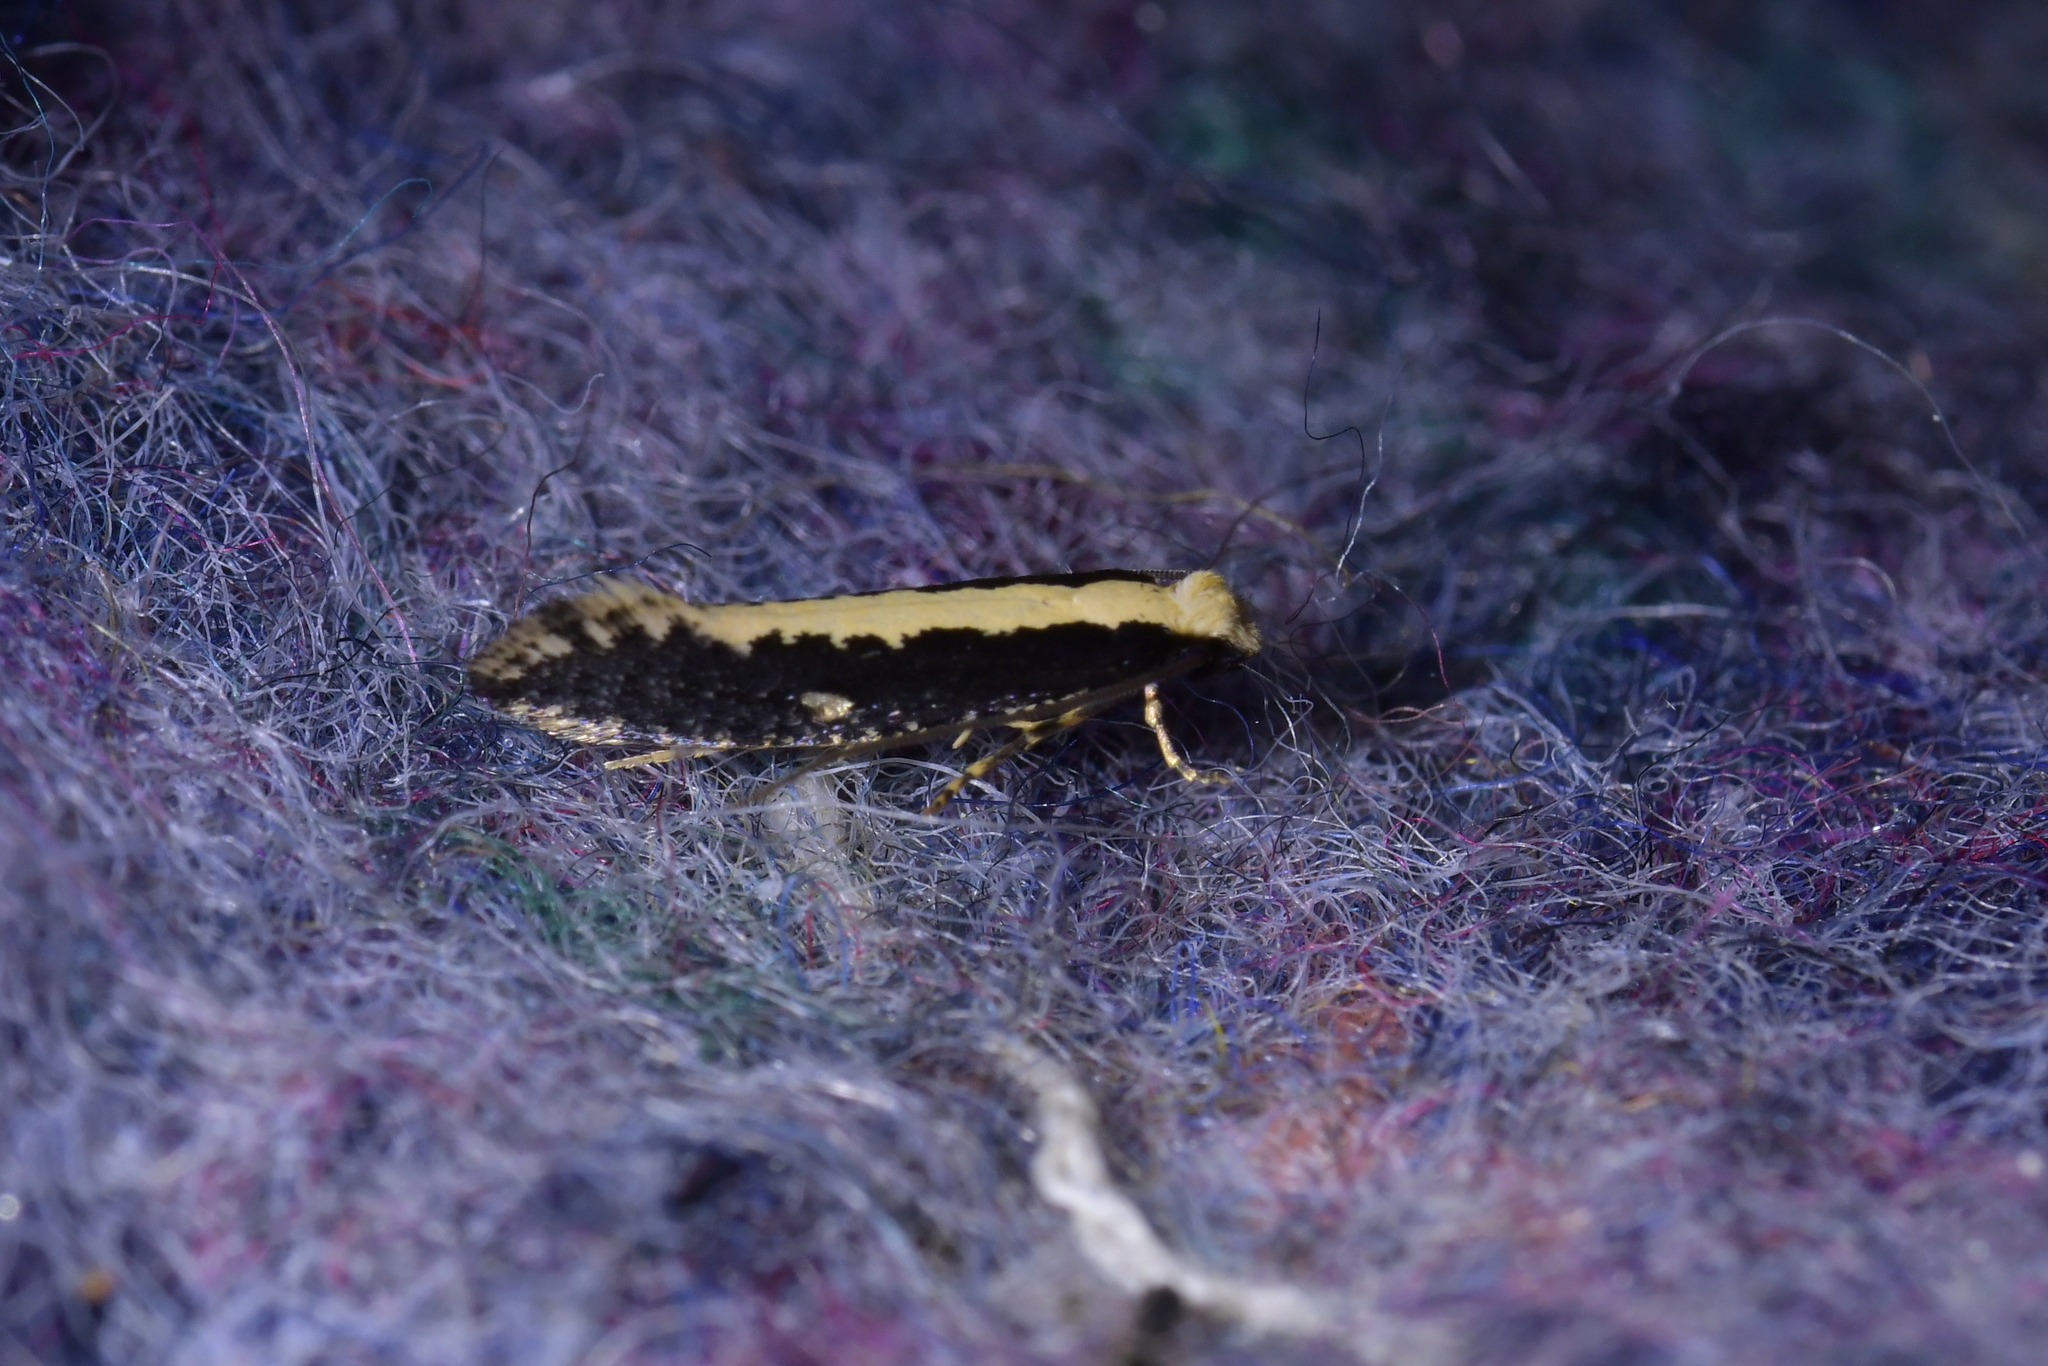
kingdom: Animalia
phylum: Arthropoda
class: Insecta
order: Lepidoptera
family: Tineidae
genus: Monopis
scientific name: Monopis ethelella
